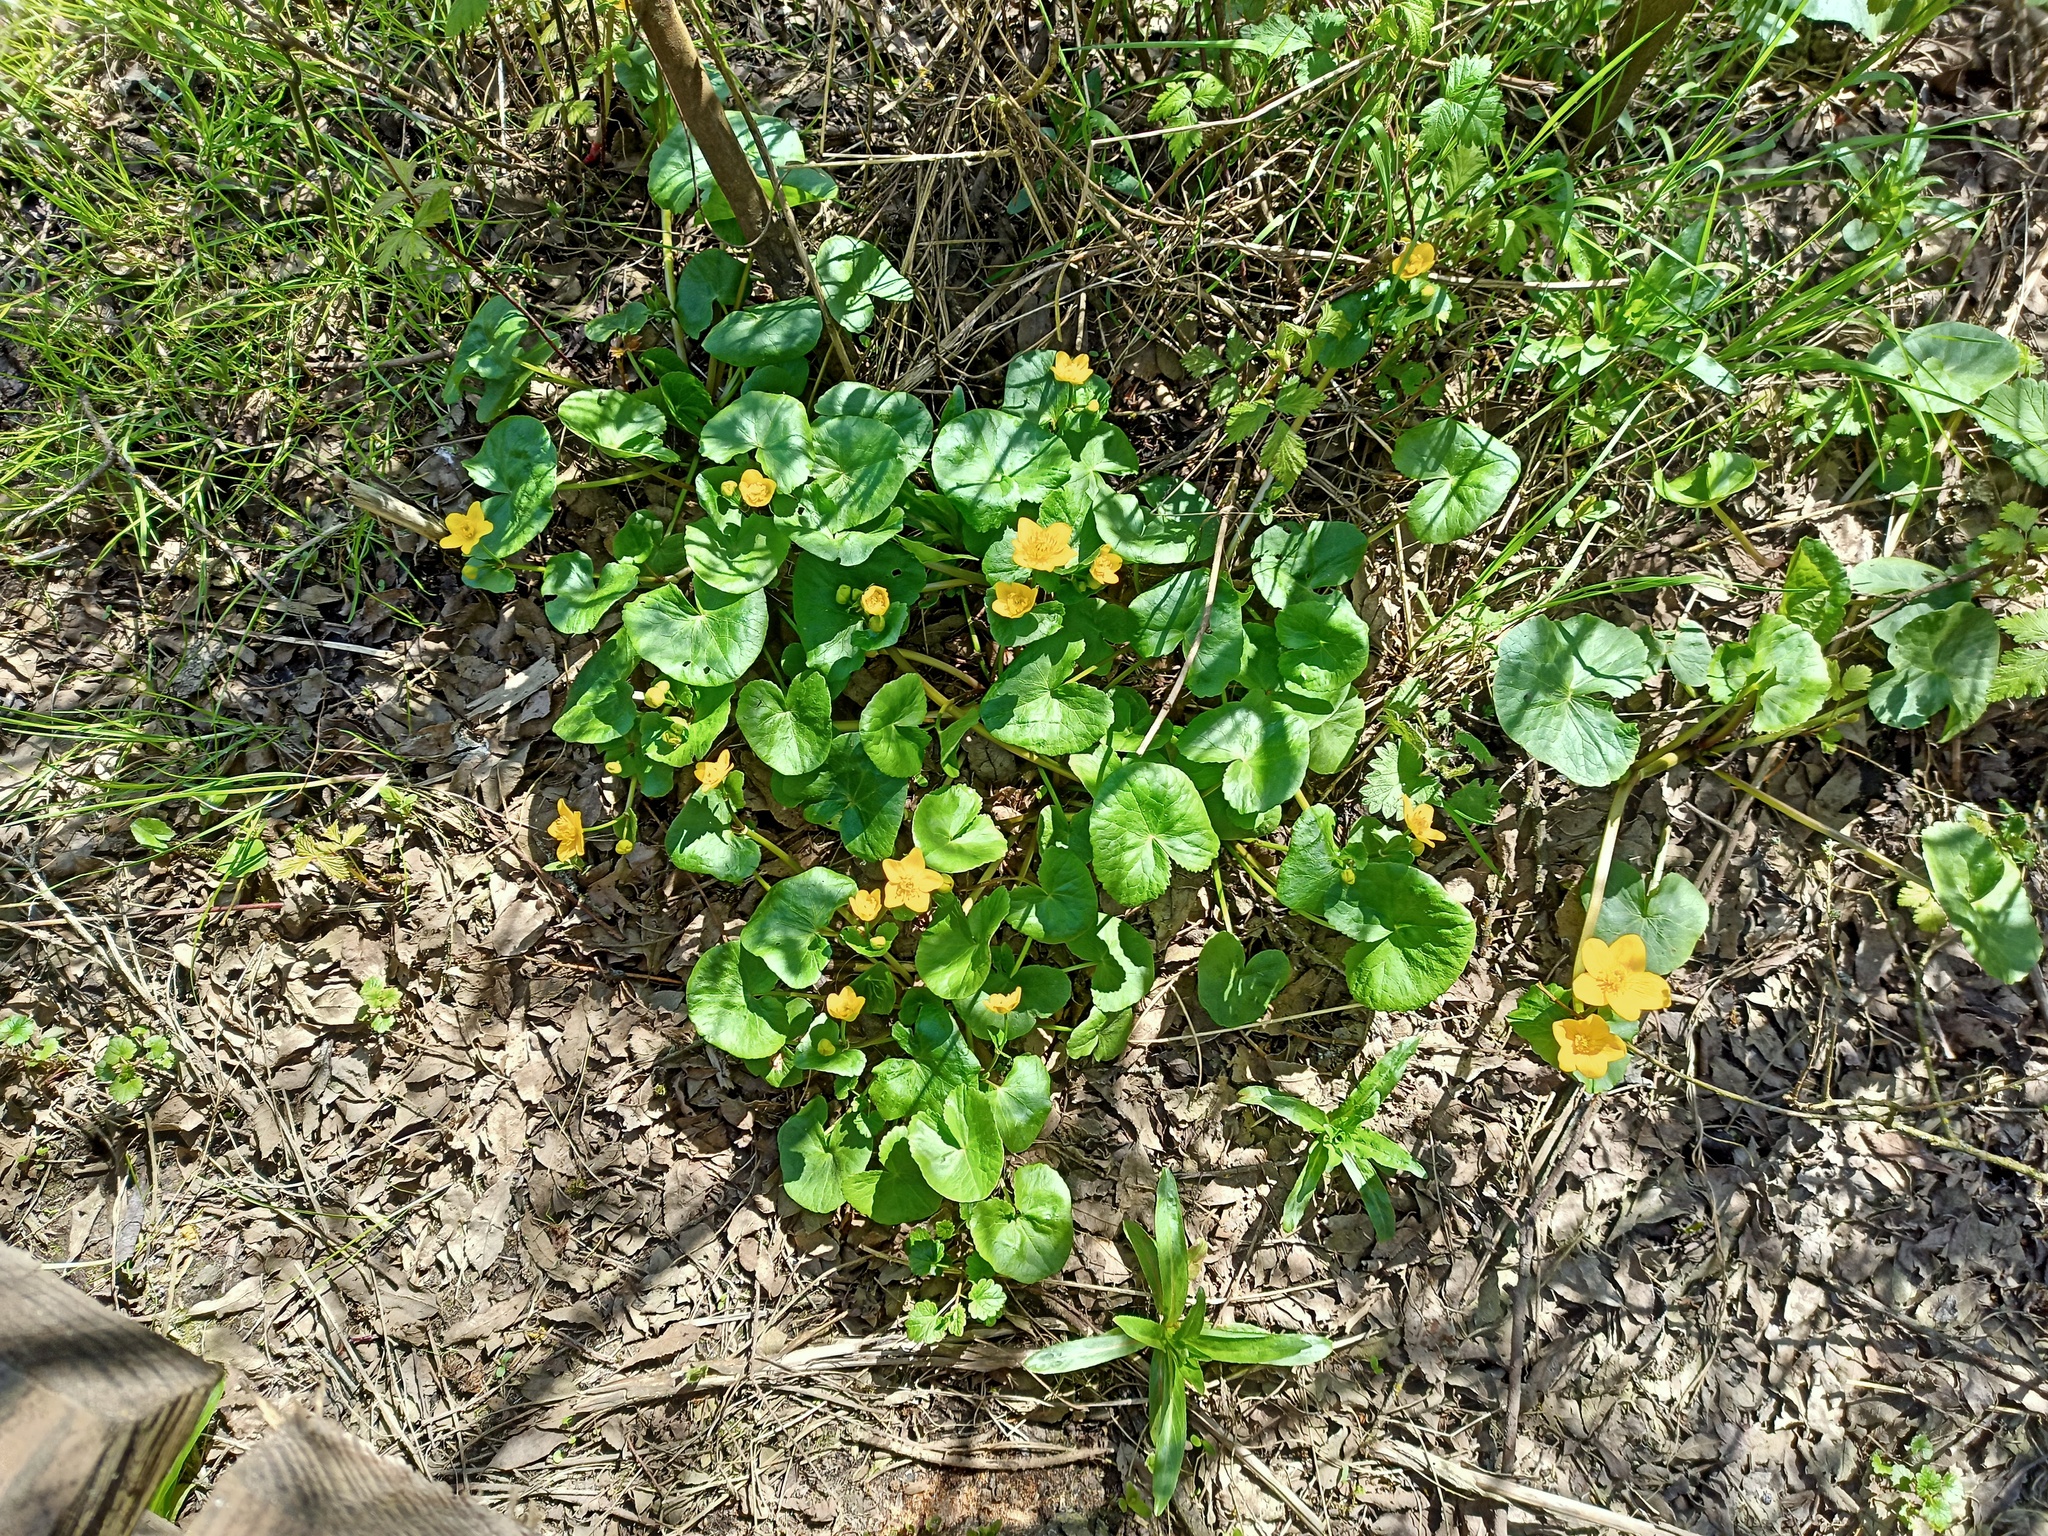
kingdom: Plantae
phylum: Tracheophyta
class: Magnoliopsida
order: Ranunculales
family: Ranunculaceae
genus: Caltha
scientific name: Caltha palustris
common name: Marsh marigold
